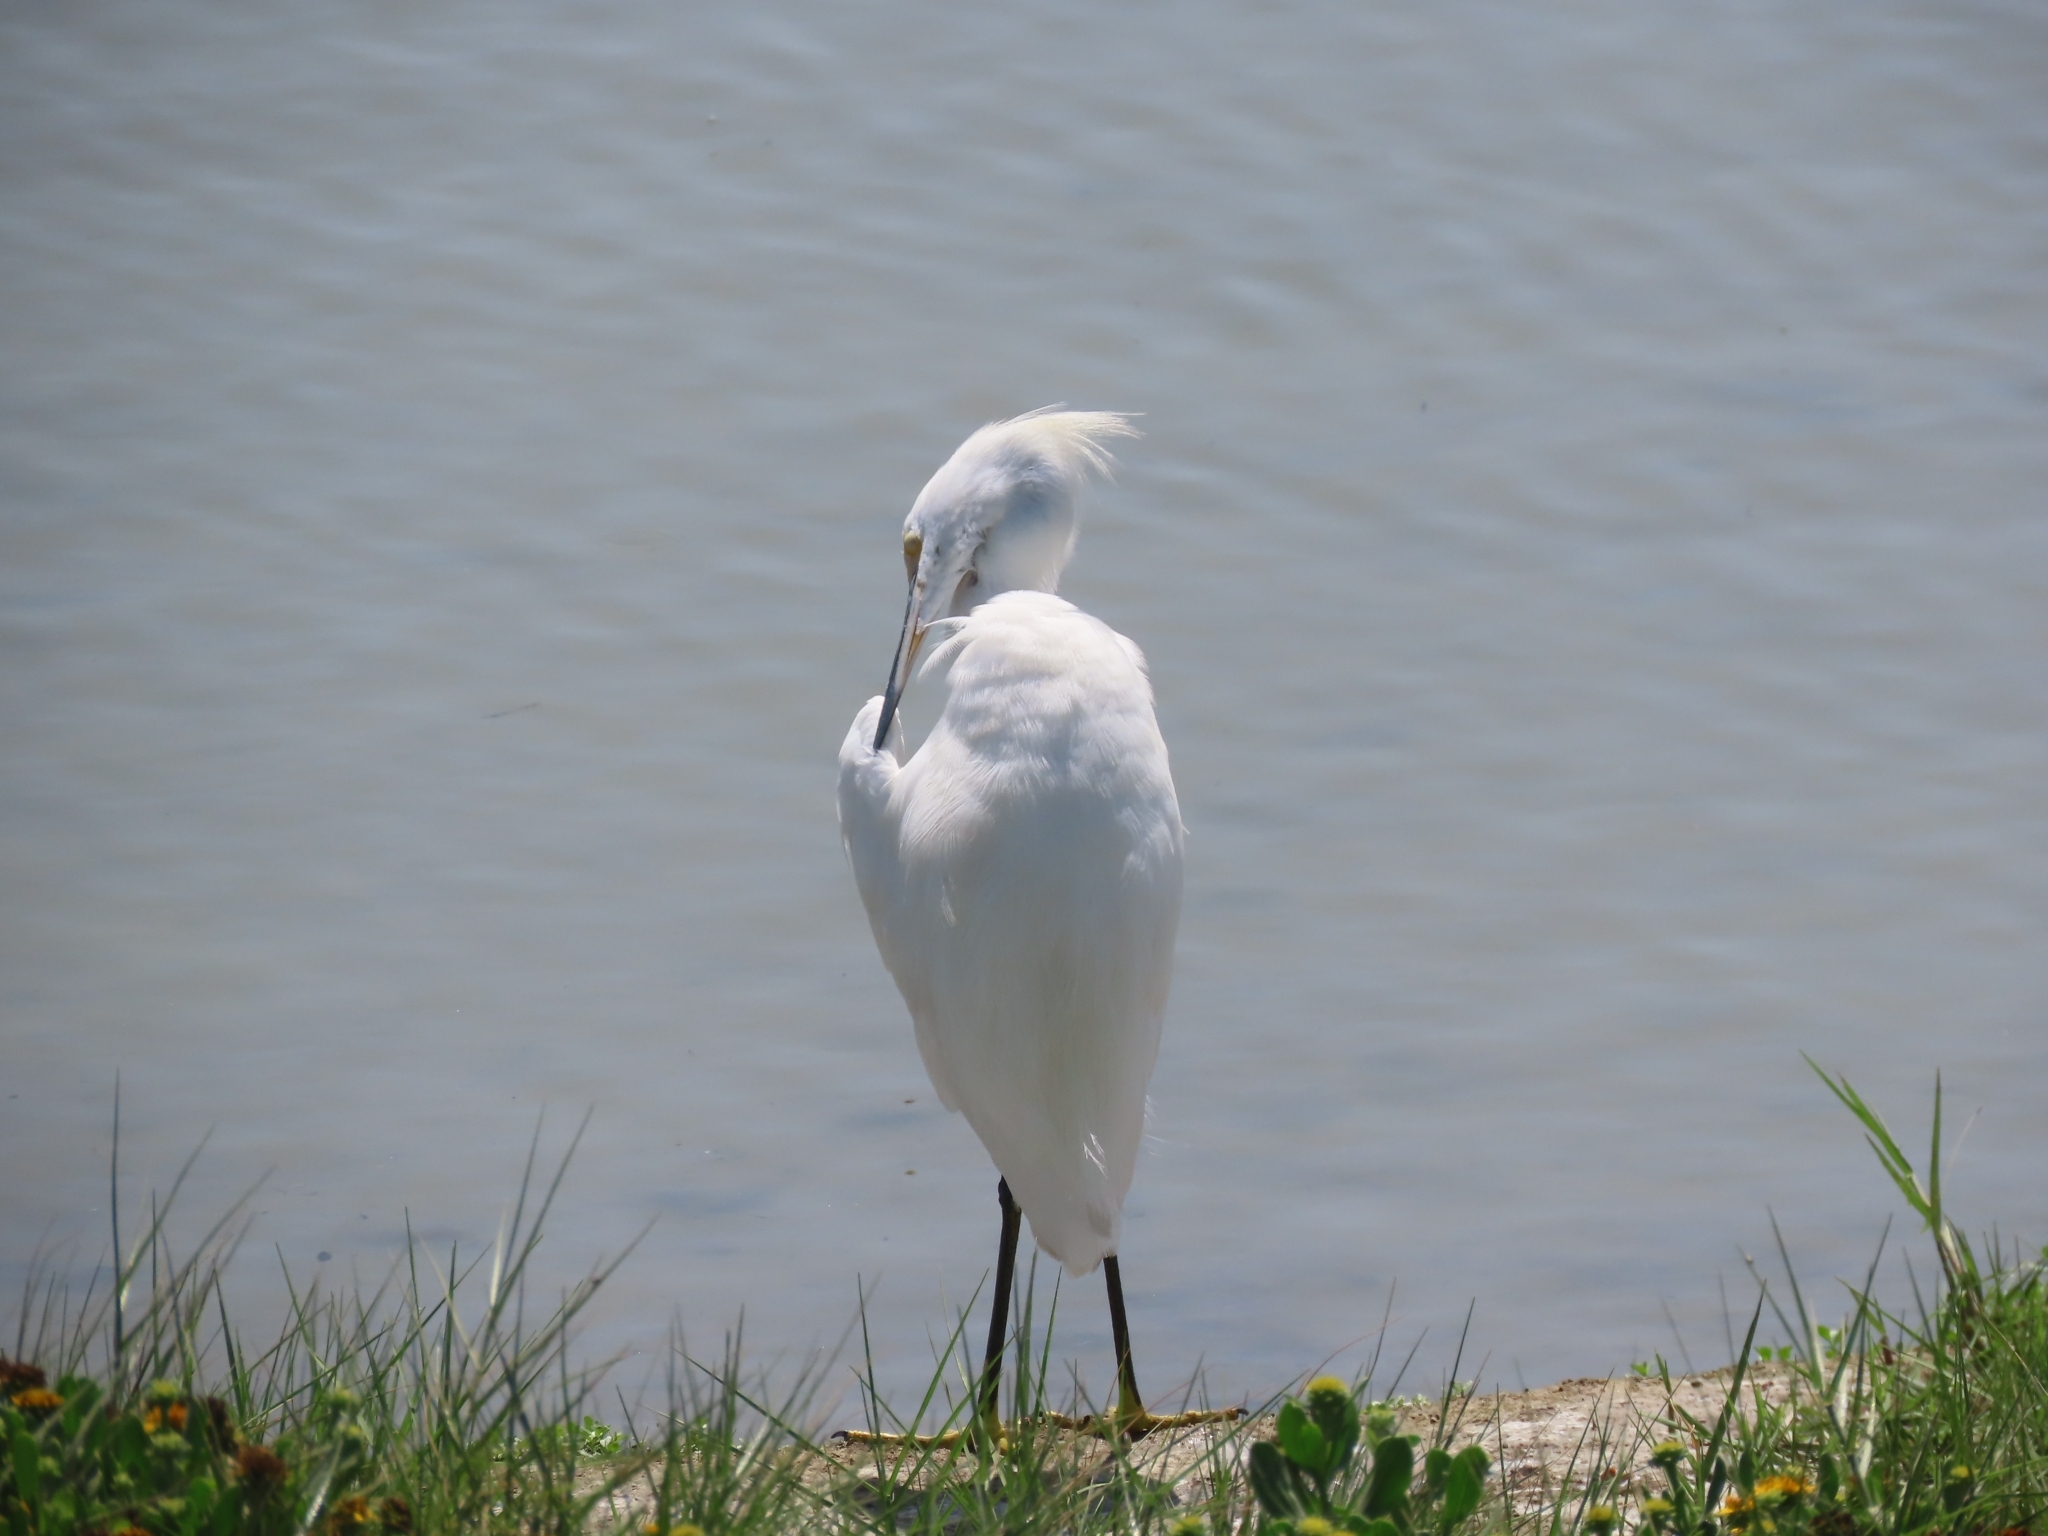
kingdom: Animalia
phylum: Chordata
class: Aves
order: Pelecaniformes
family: Ardeidae
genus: Egretta
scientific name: Egretta thula
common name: Snowy egret
